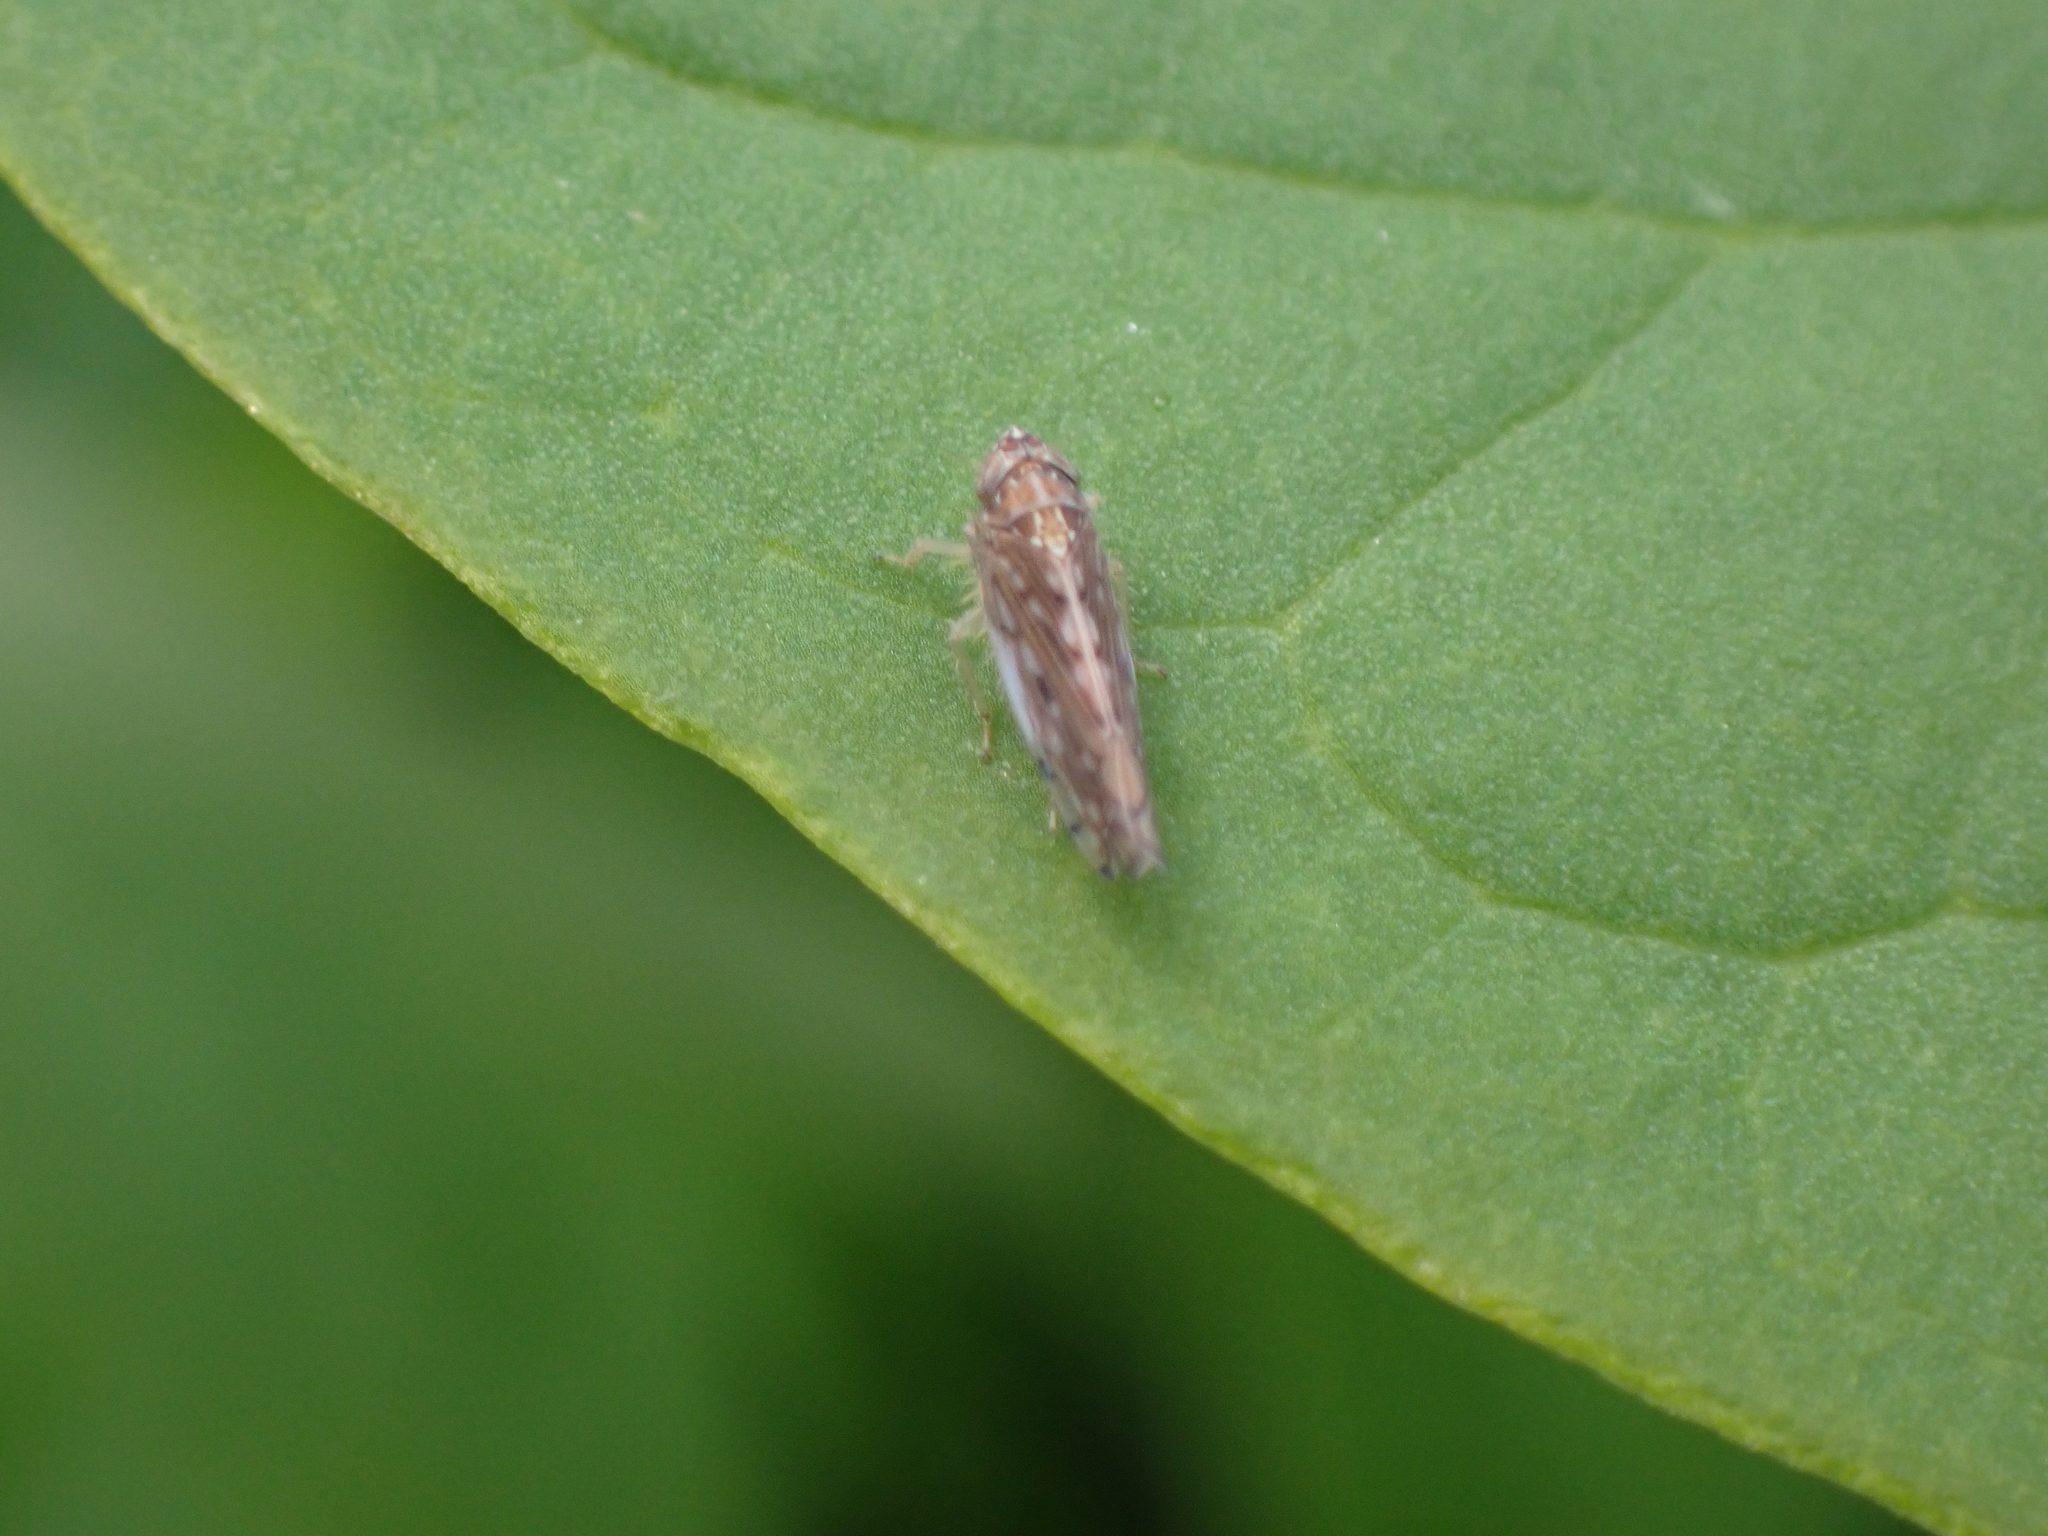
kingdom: Animalia
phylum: Arthropoda
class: Insecta
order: Hemiptera
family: Cicadellidae
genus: Osbornellus
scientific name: Osbornellus clarus
